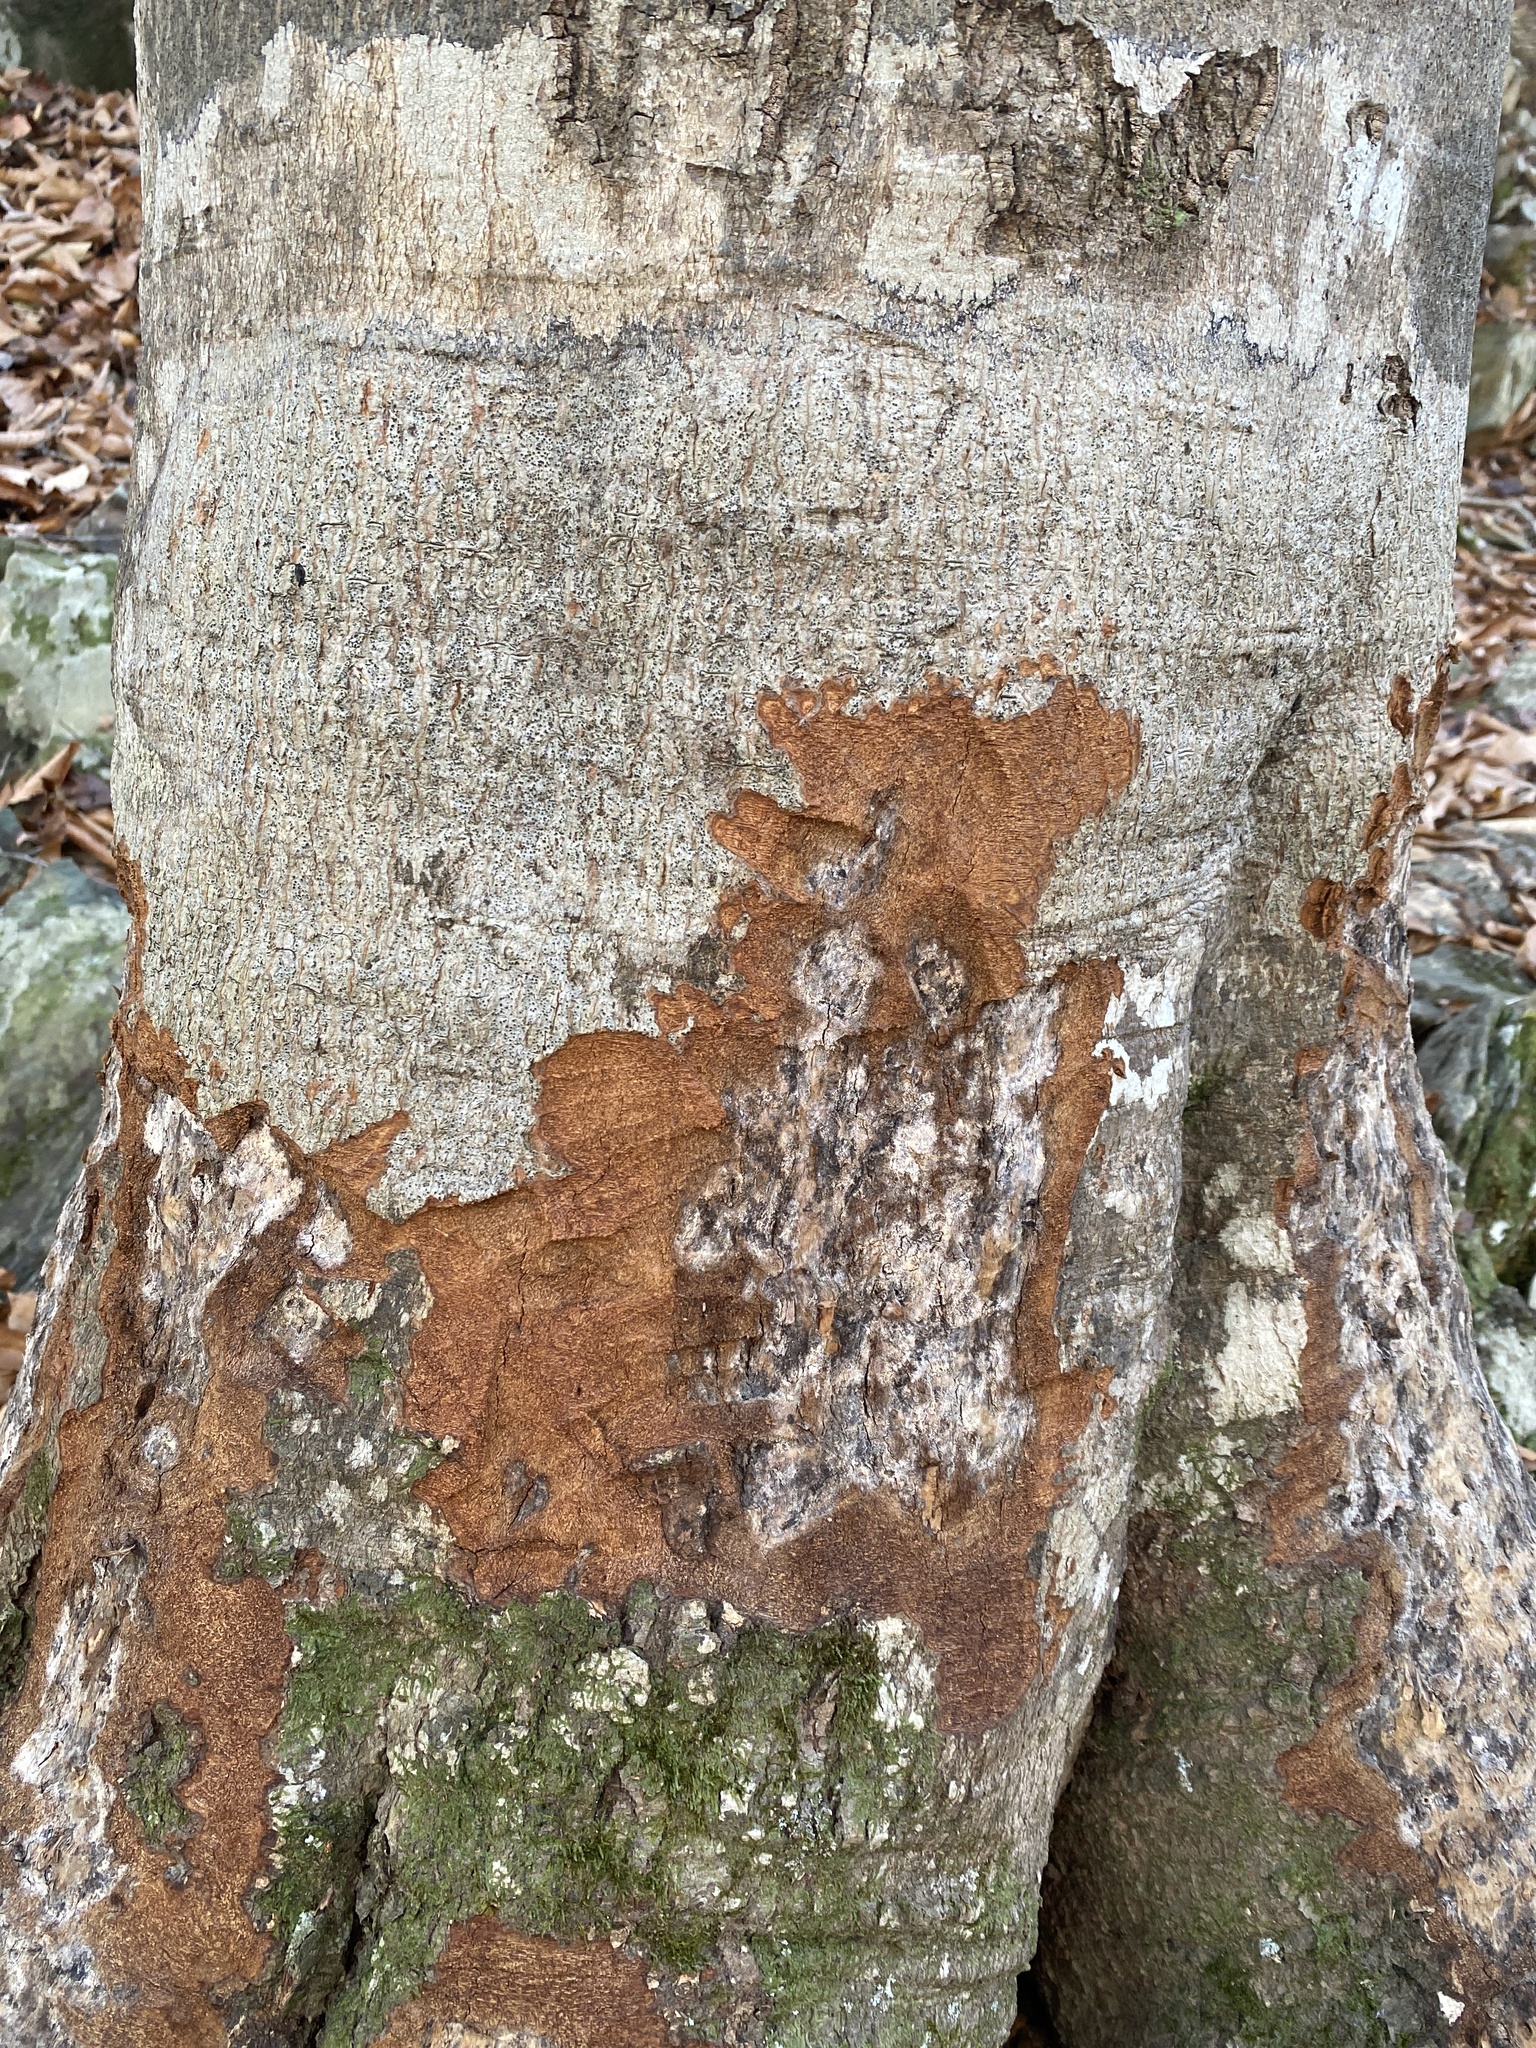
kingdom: Animalia
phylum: Chordata
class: Mammalia
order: Rodentia
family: Castoridae
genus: Castor
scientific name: Castor canadensis
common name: American beaver
